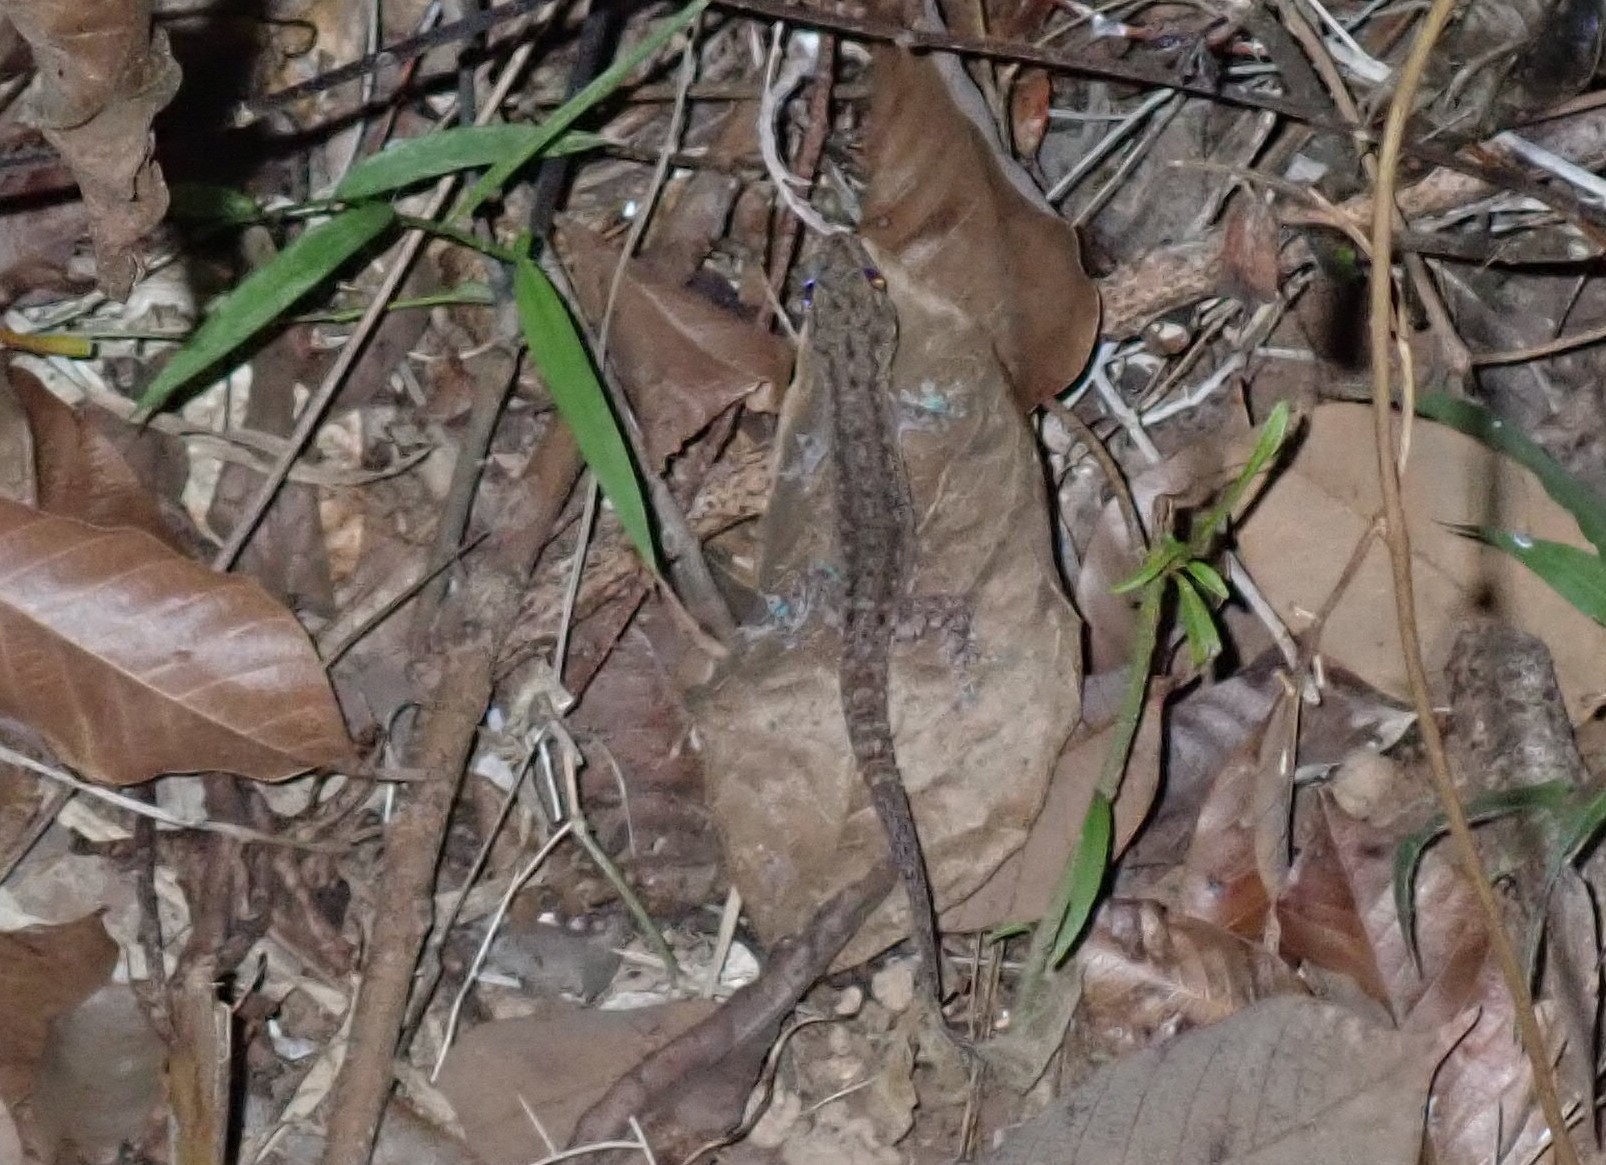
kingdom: Animalia
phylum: Chordata
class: Squamata
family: Gekkonidae
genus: Hemidactylus
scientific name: Hemidactylus frenatus
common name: Common house gecko
